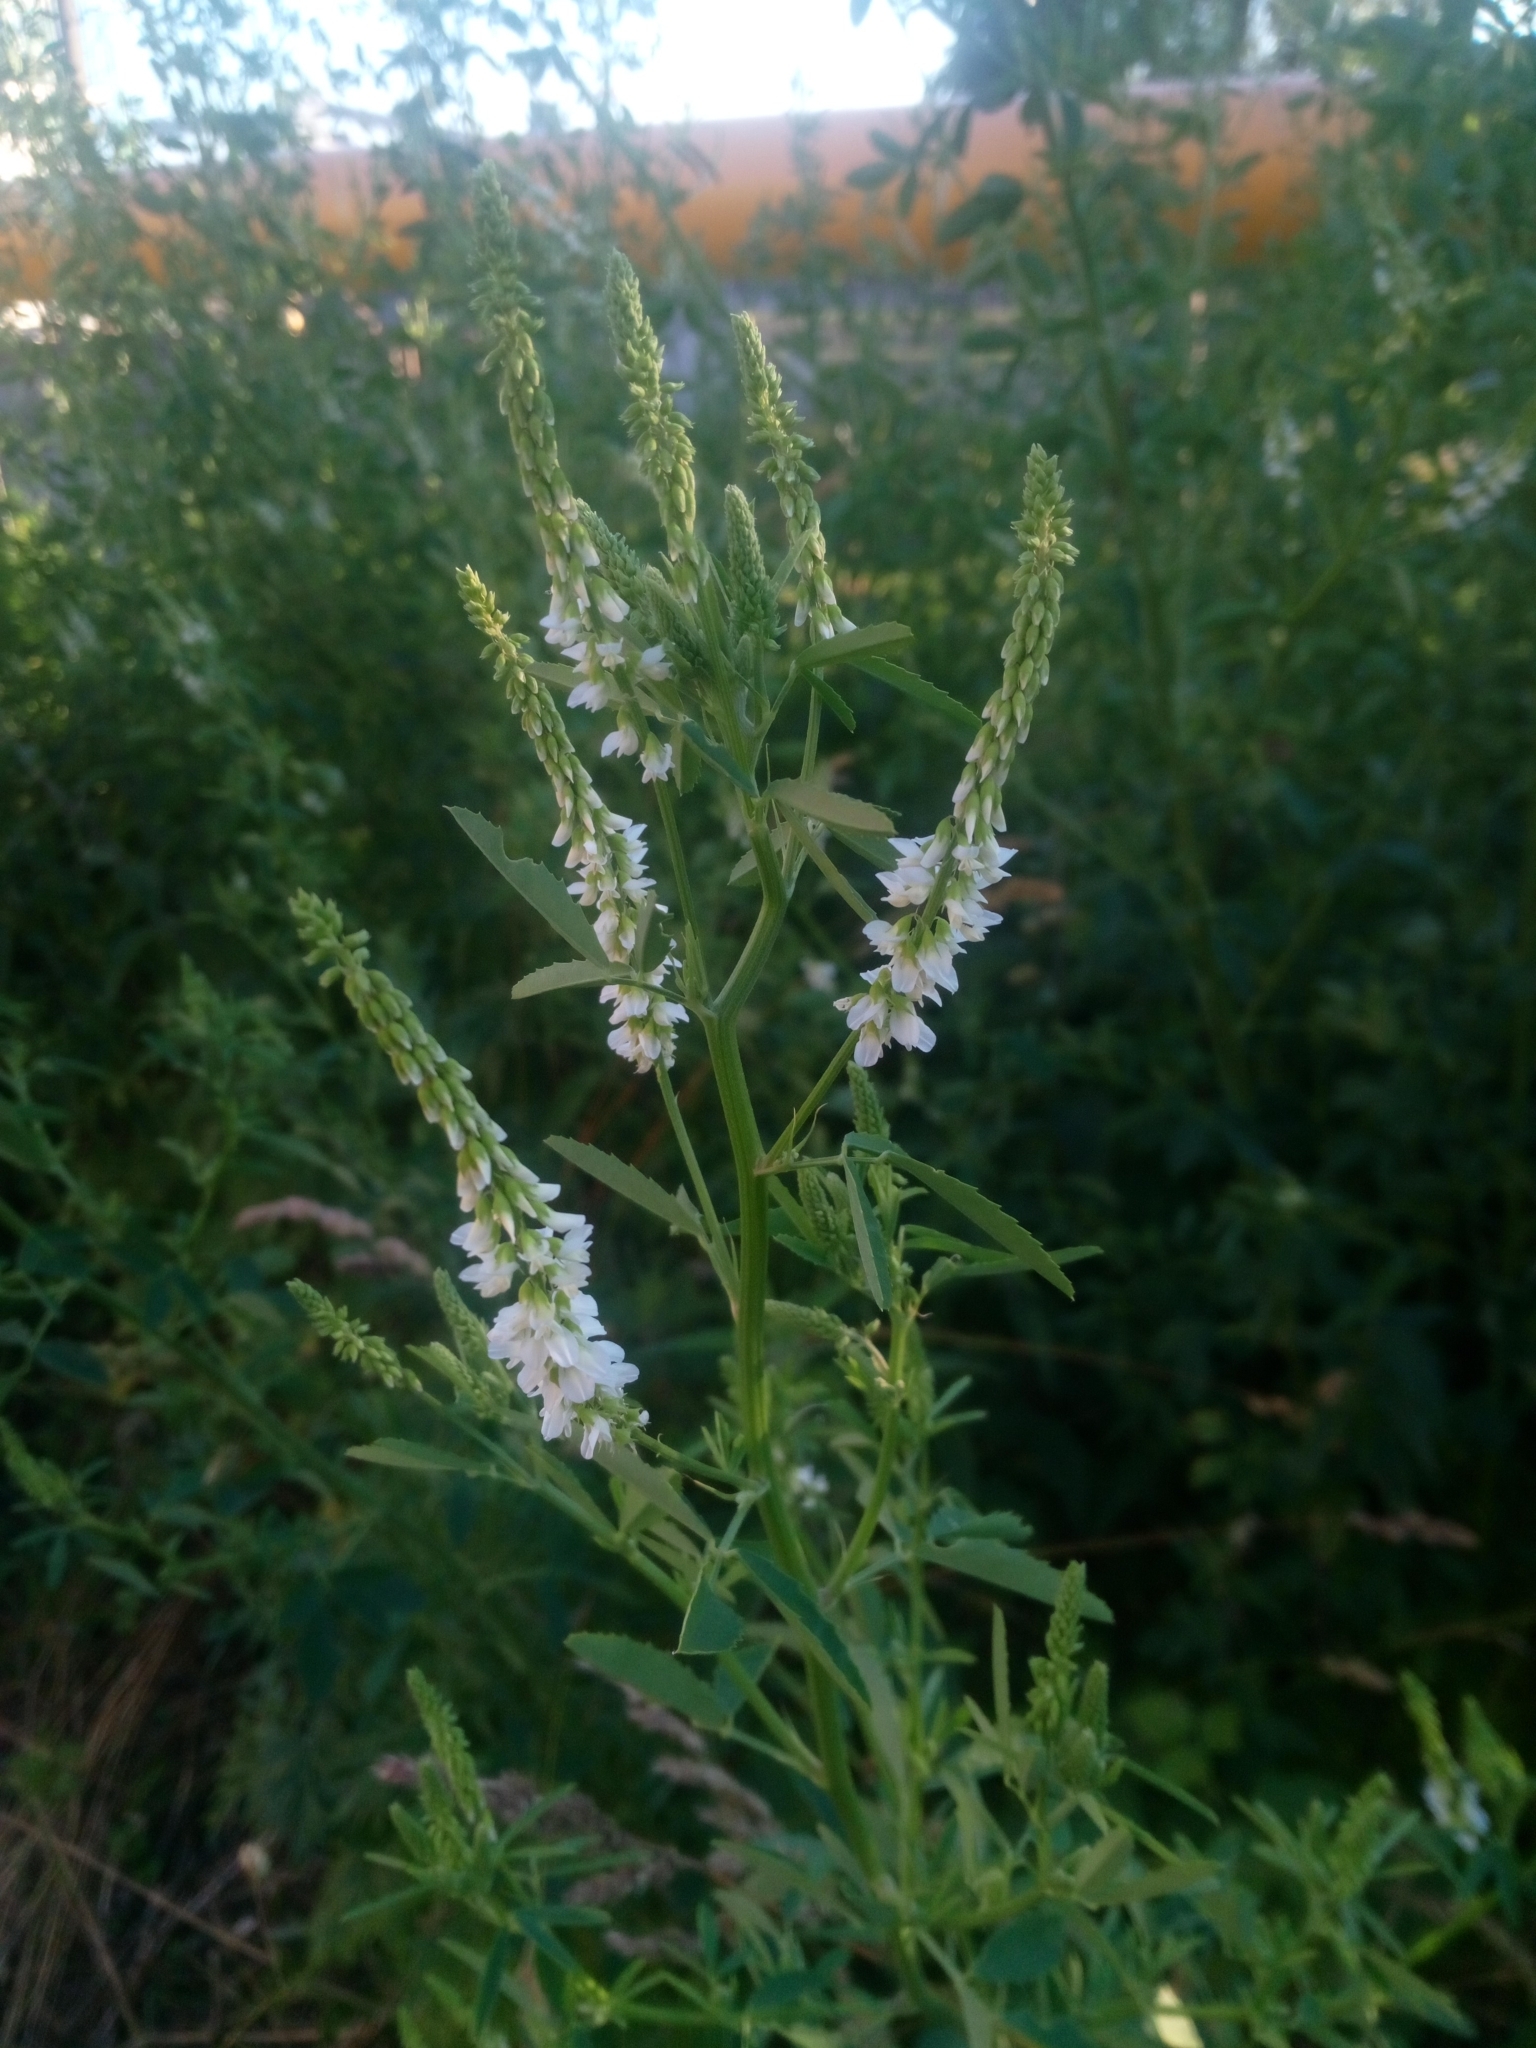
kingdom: Plantae
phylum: Tracheophyta
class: Magnoliopsida
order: Fabales
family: Fabaceae
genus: Melilotus
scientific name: Melilotus albus
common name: White melilot
